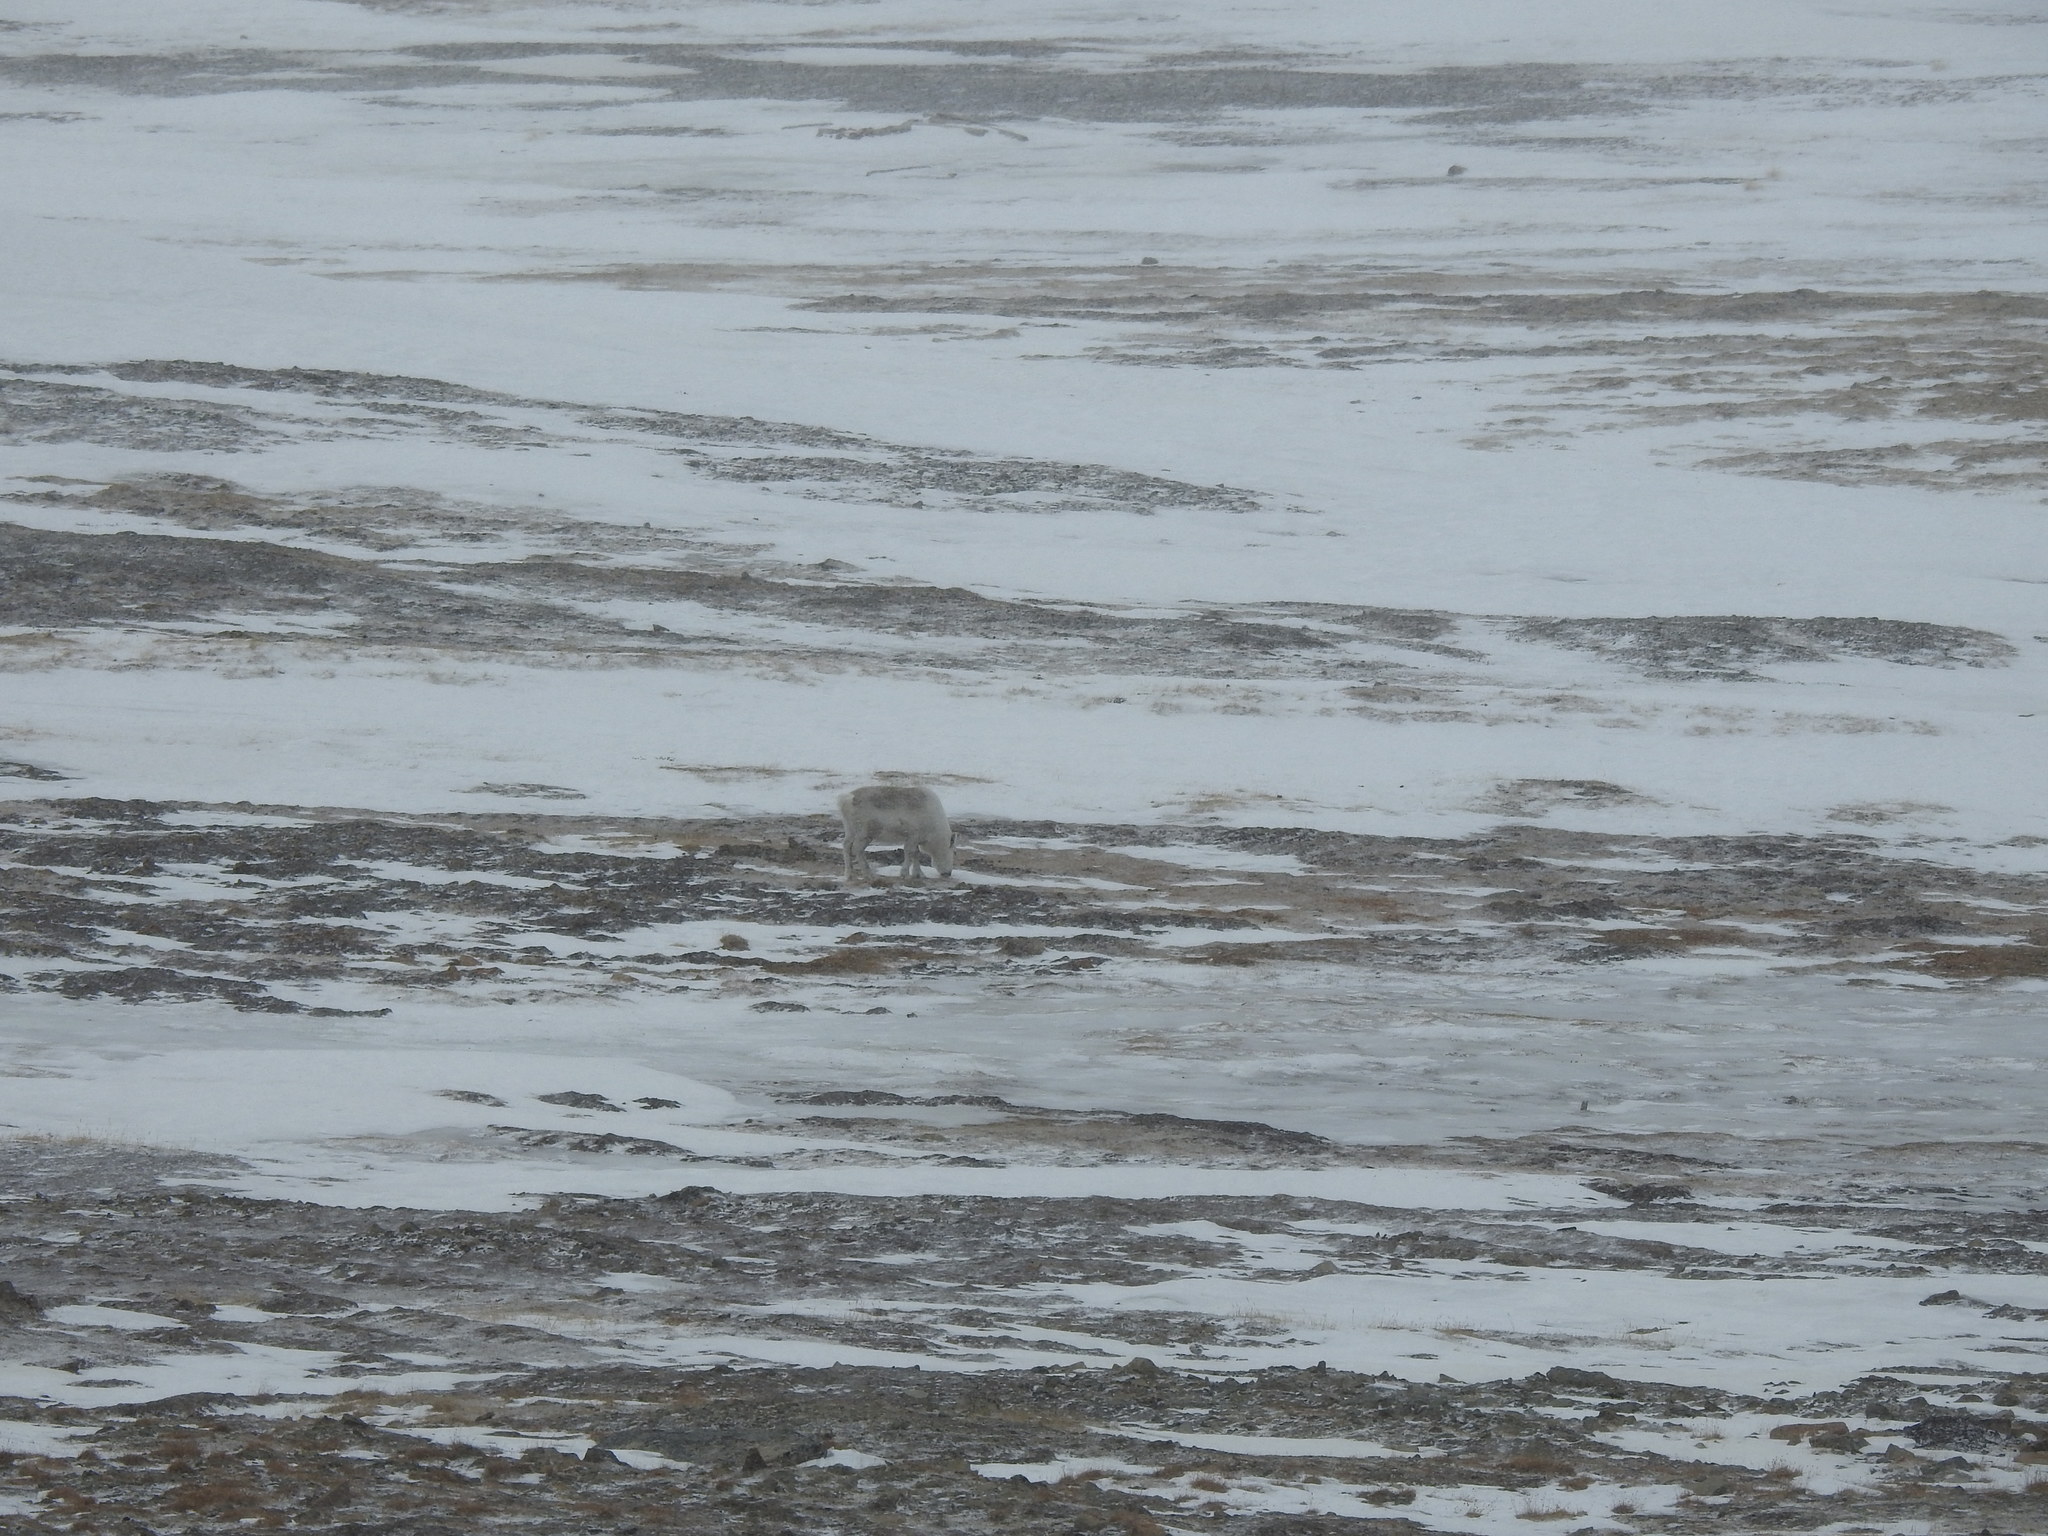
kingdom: Animalia
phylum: Chordata
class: Mammalia
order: Artiodactyla
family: Cervidae
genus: Rangifer
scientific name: Rangifer tarandus
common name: Reindeer
